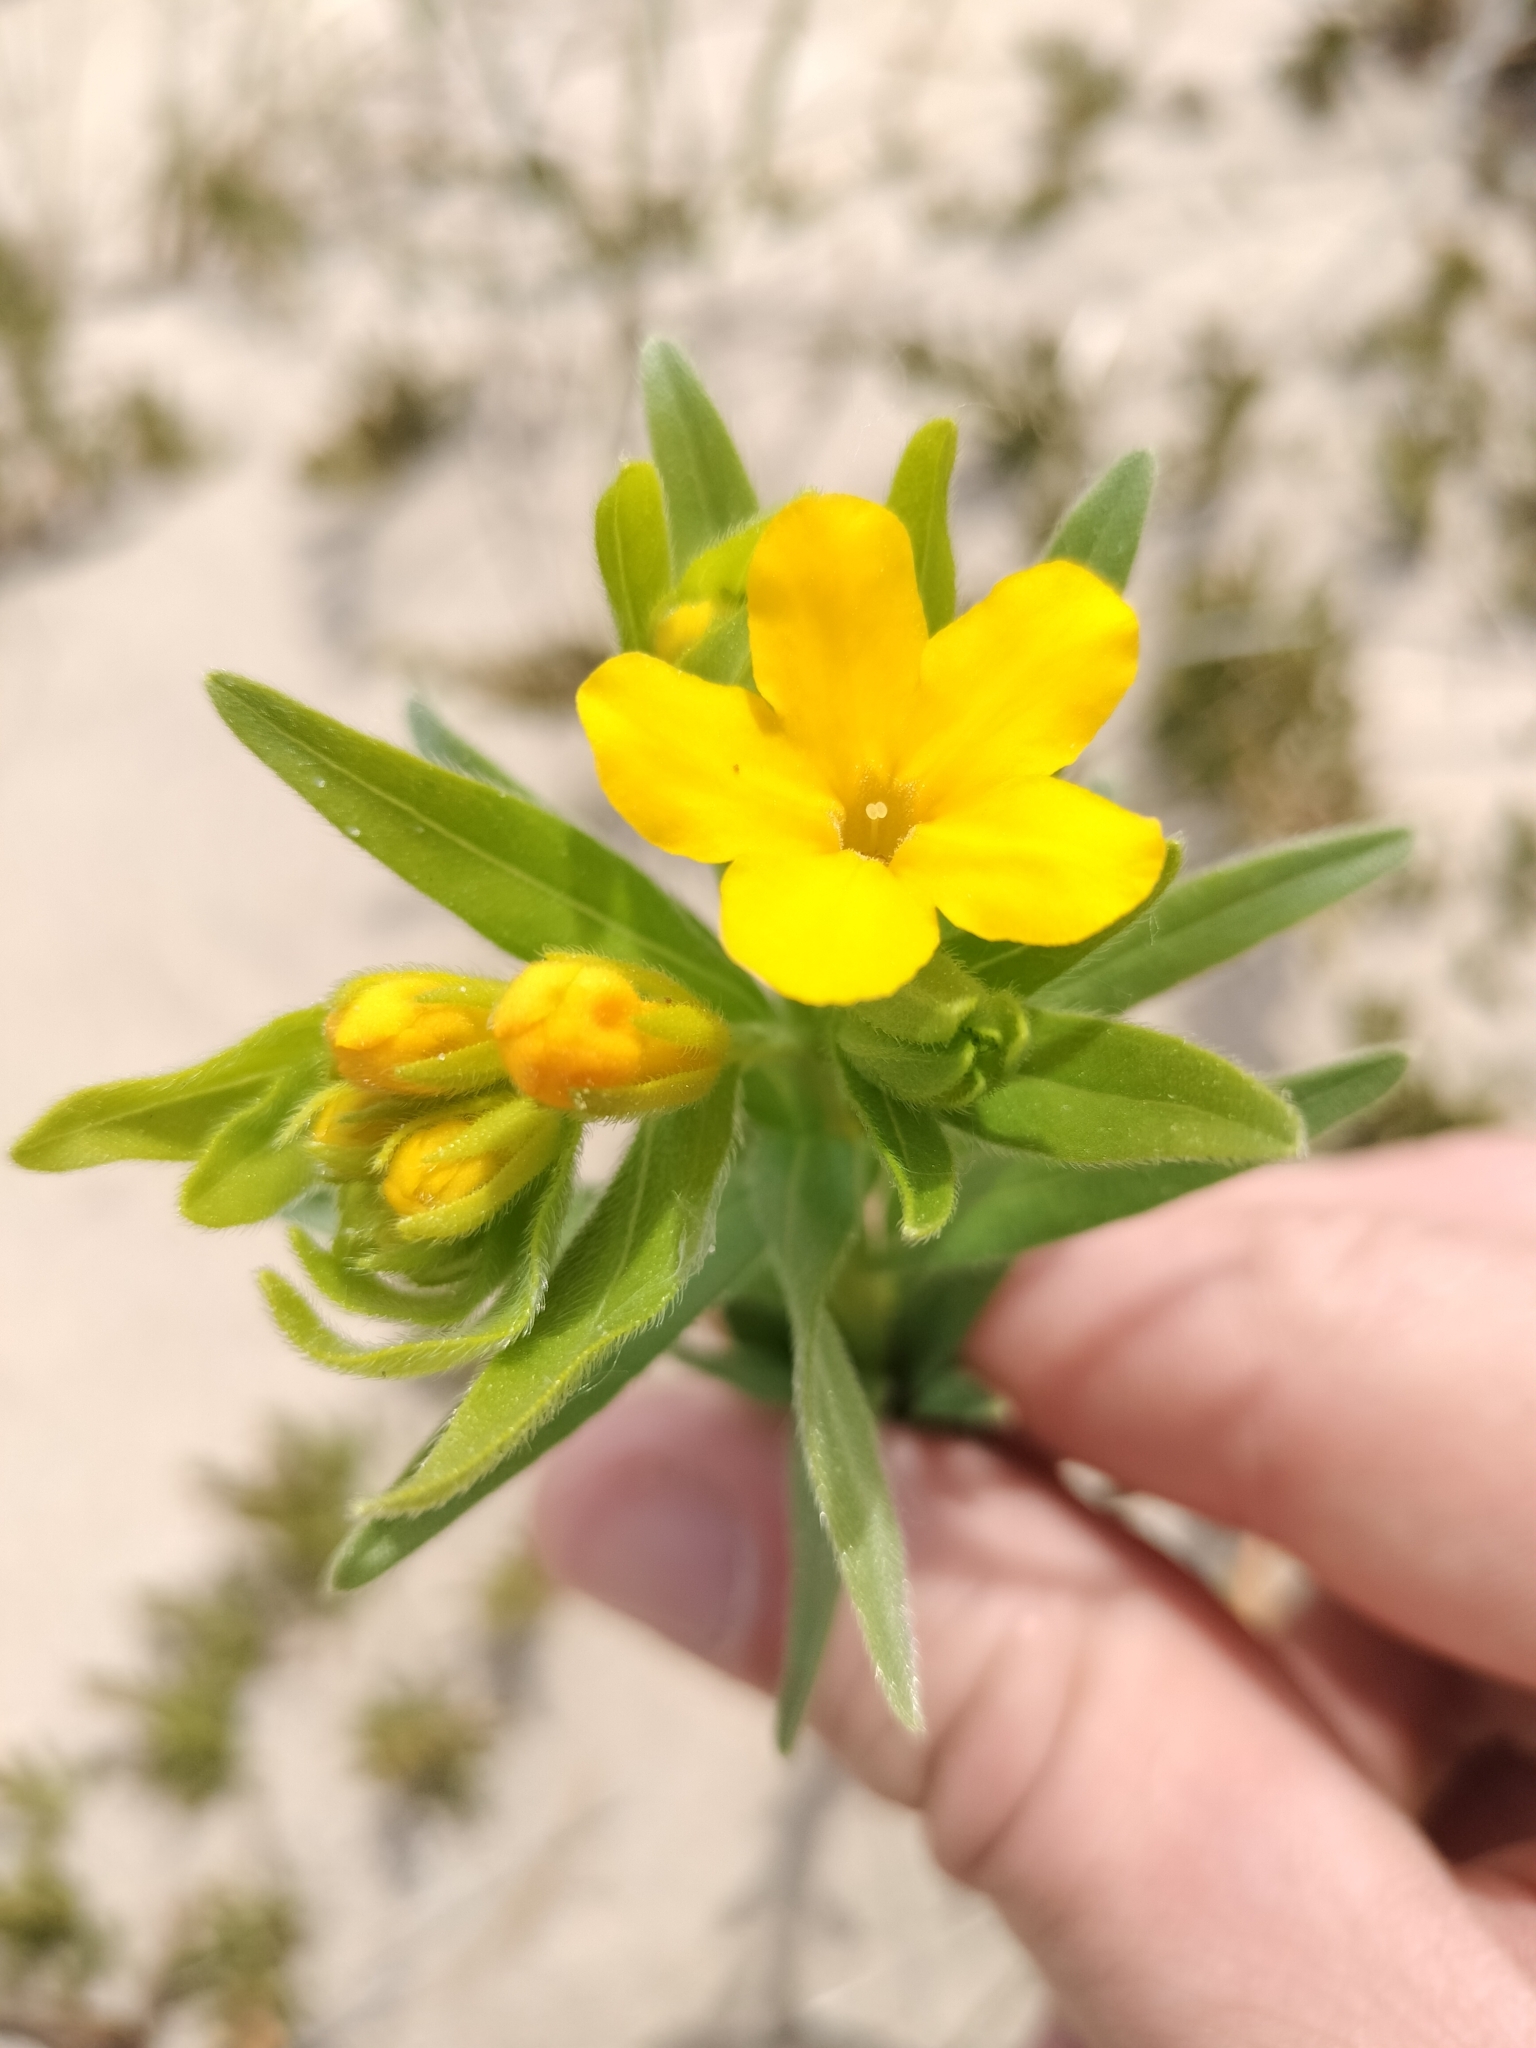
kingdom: Plantae
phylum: Tracheophyta
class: Magnoliopsida
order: Boraginales
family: Boraginaceae
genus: Lithospermum
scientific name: Lithospermum caroliniense
